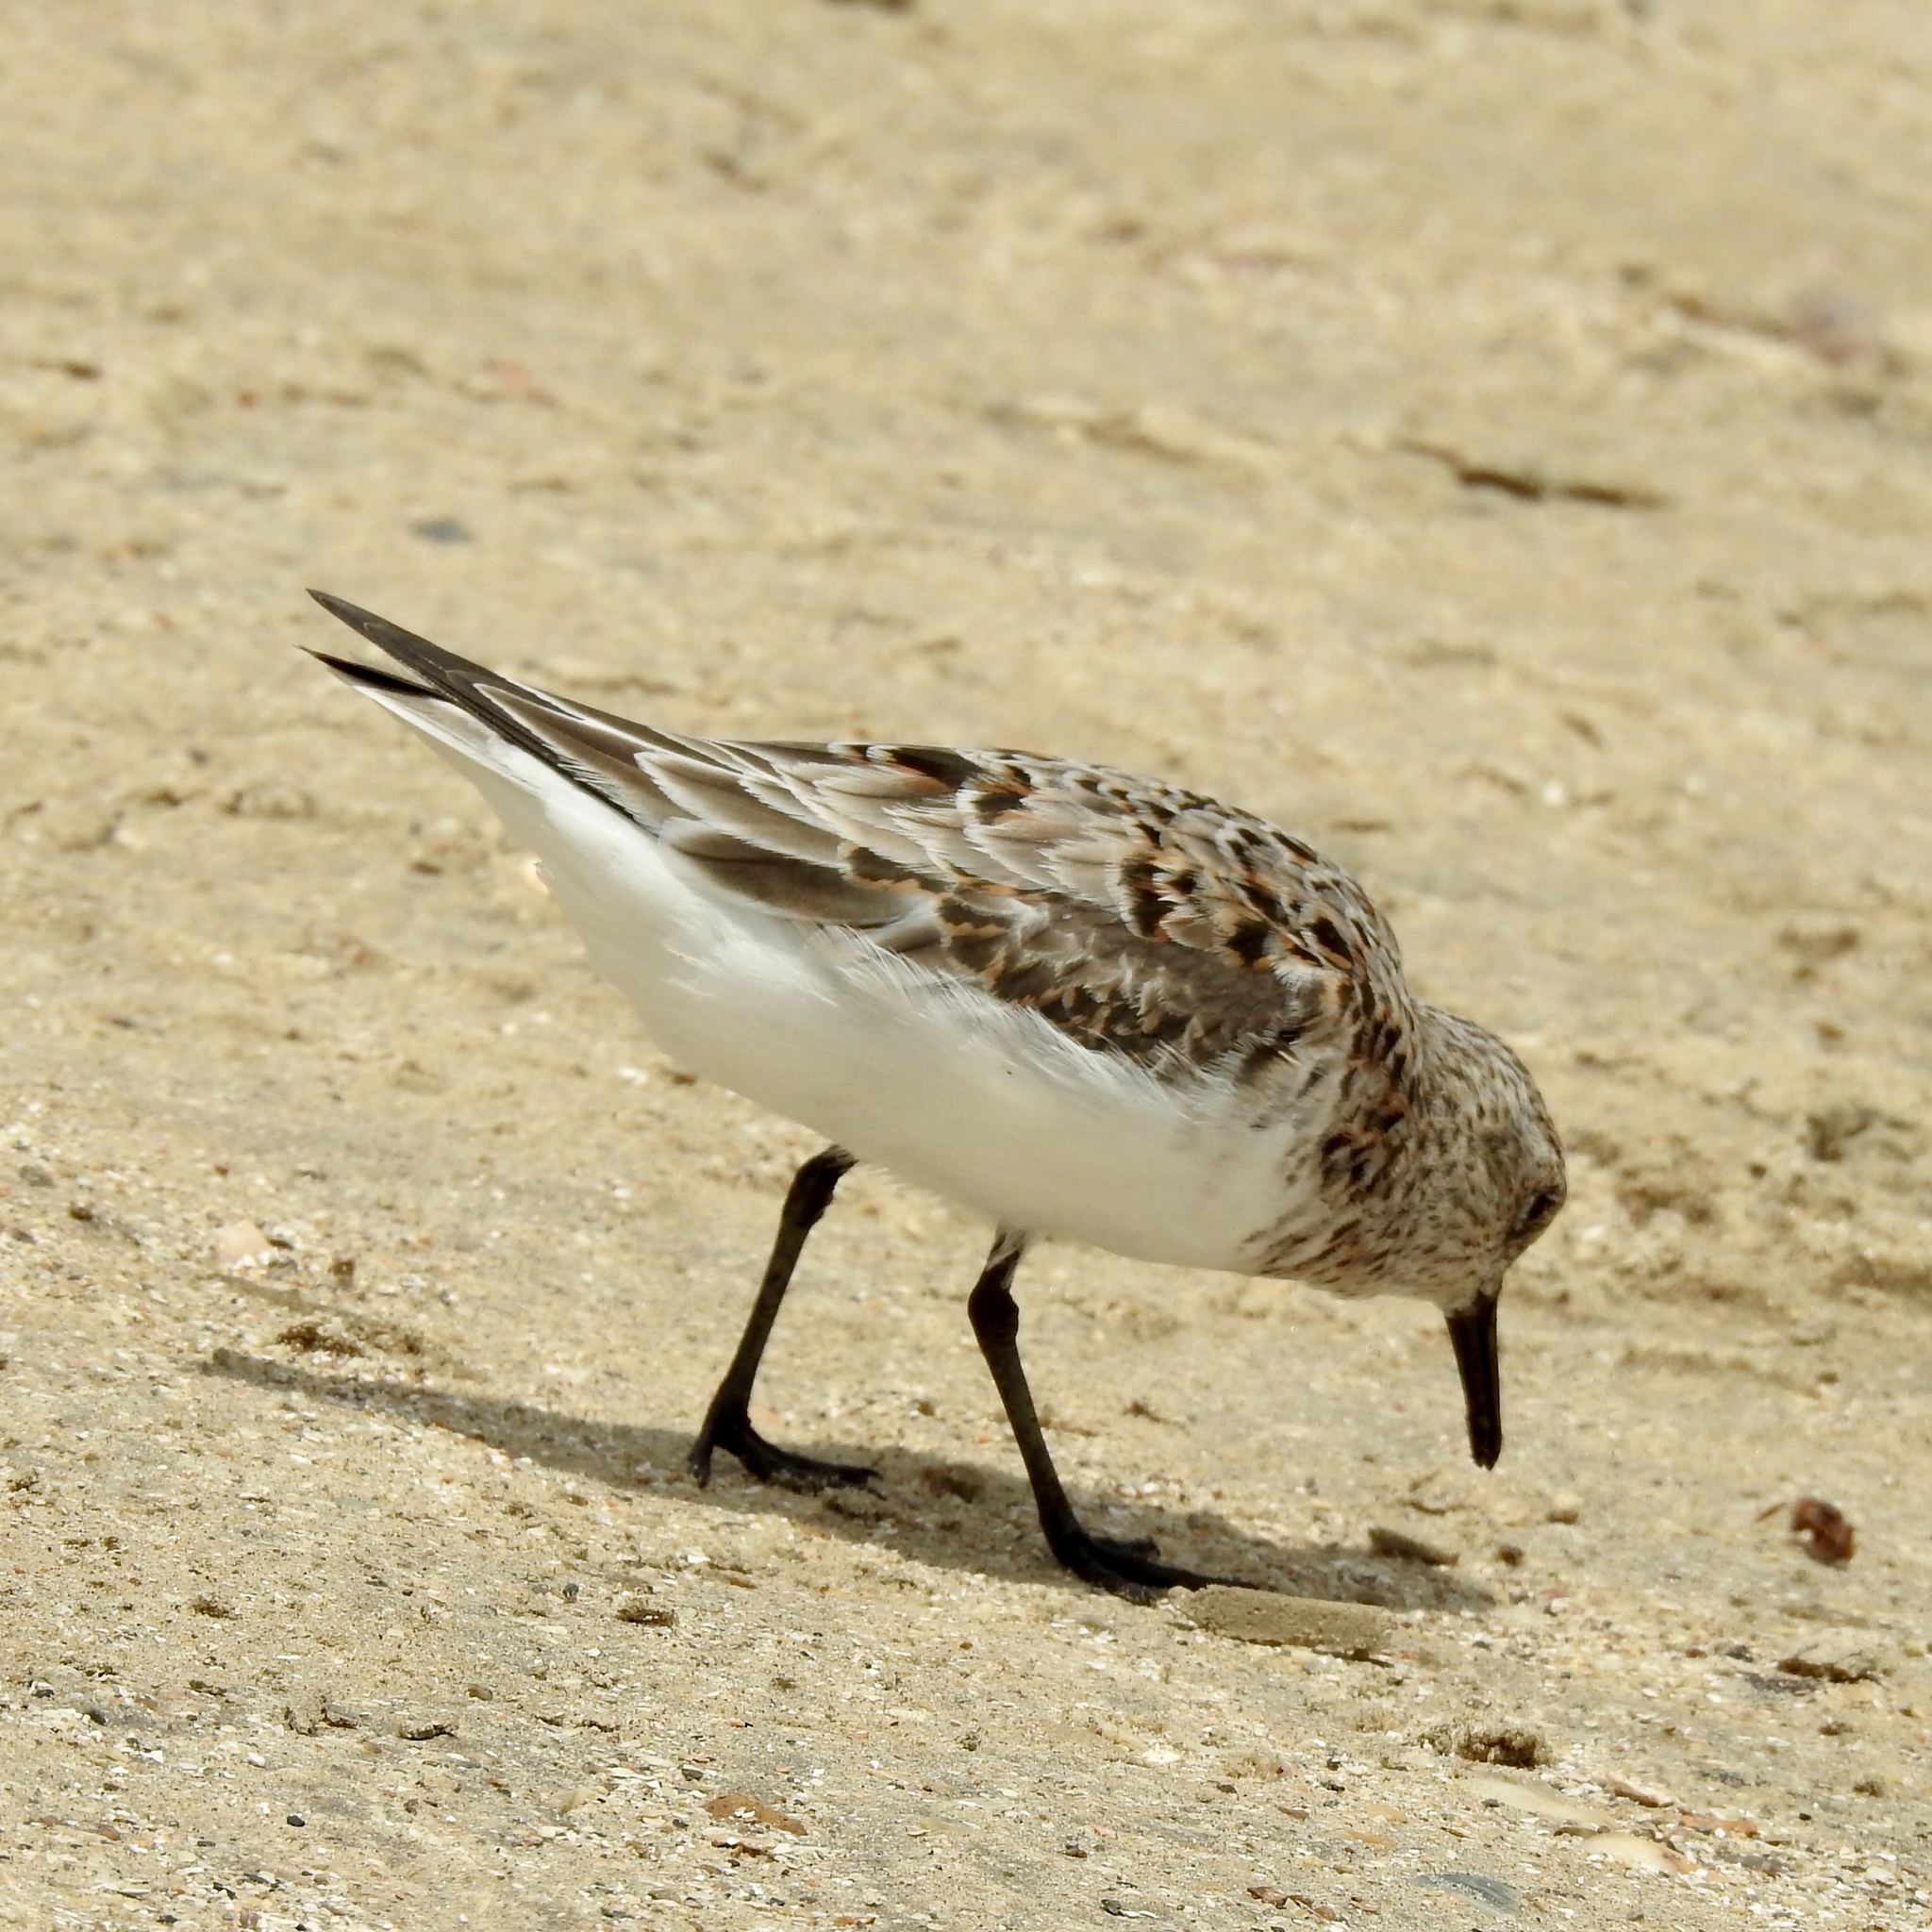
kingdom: Animalia
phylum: Chordata
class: Aves
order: Charadriiformes
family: Scolopacidae
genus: Calidris
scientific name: Calidris alba
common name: Sanderling
